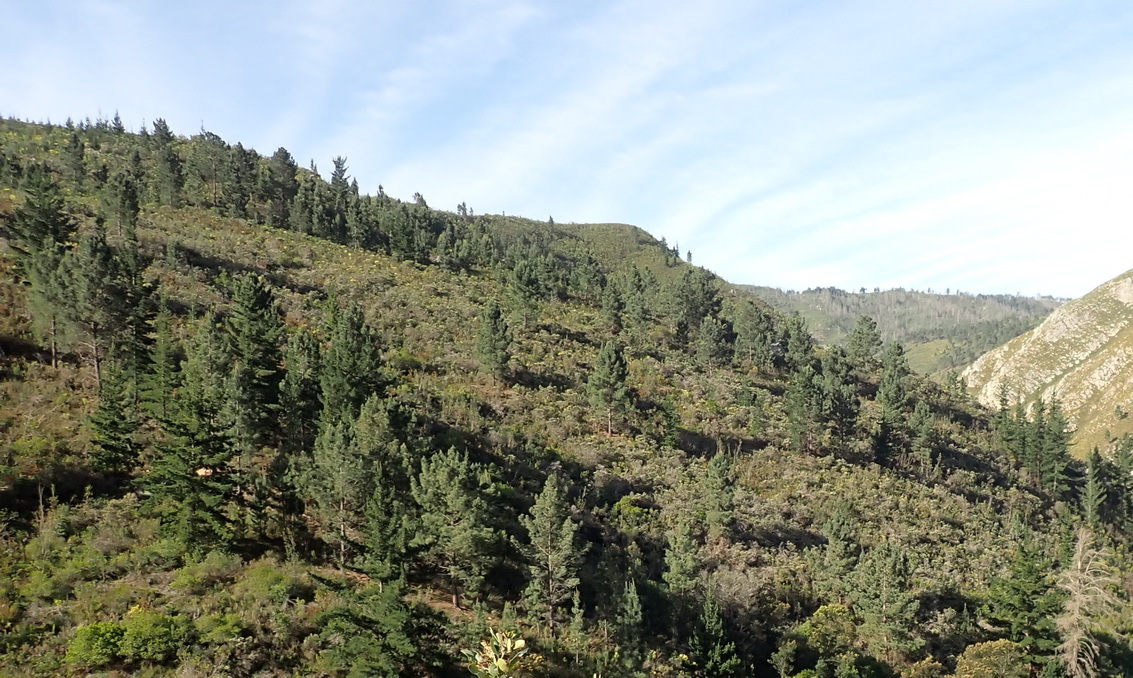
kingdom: Plantae
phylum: Tracheophyta
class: Pinopsida
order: Pinales
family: Pinaceae
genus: Pinus
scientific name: Pinus radiata
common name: Monterey pine
